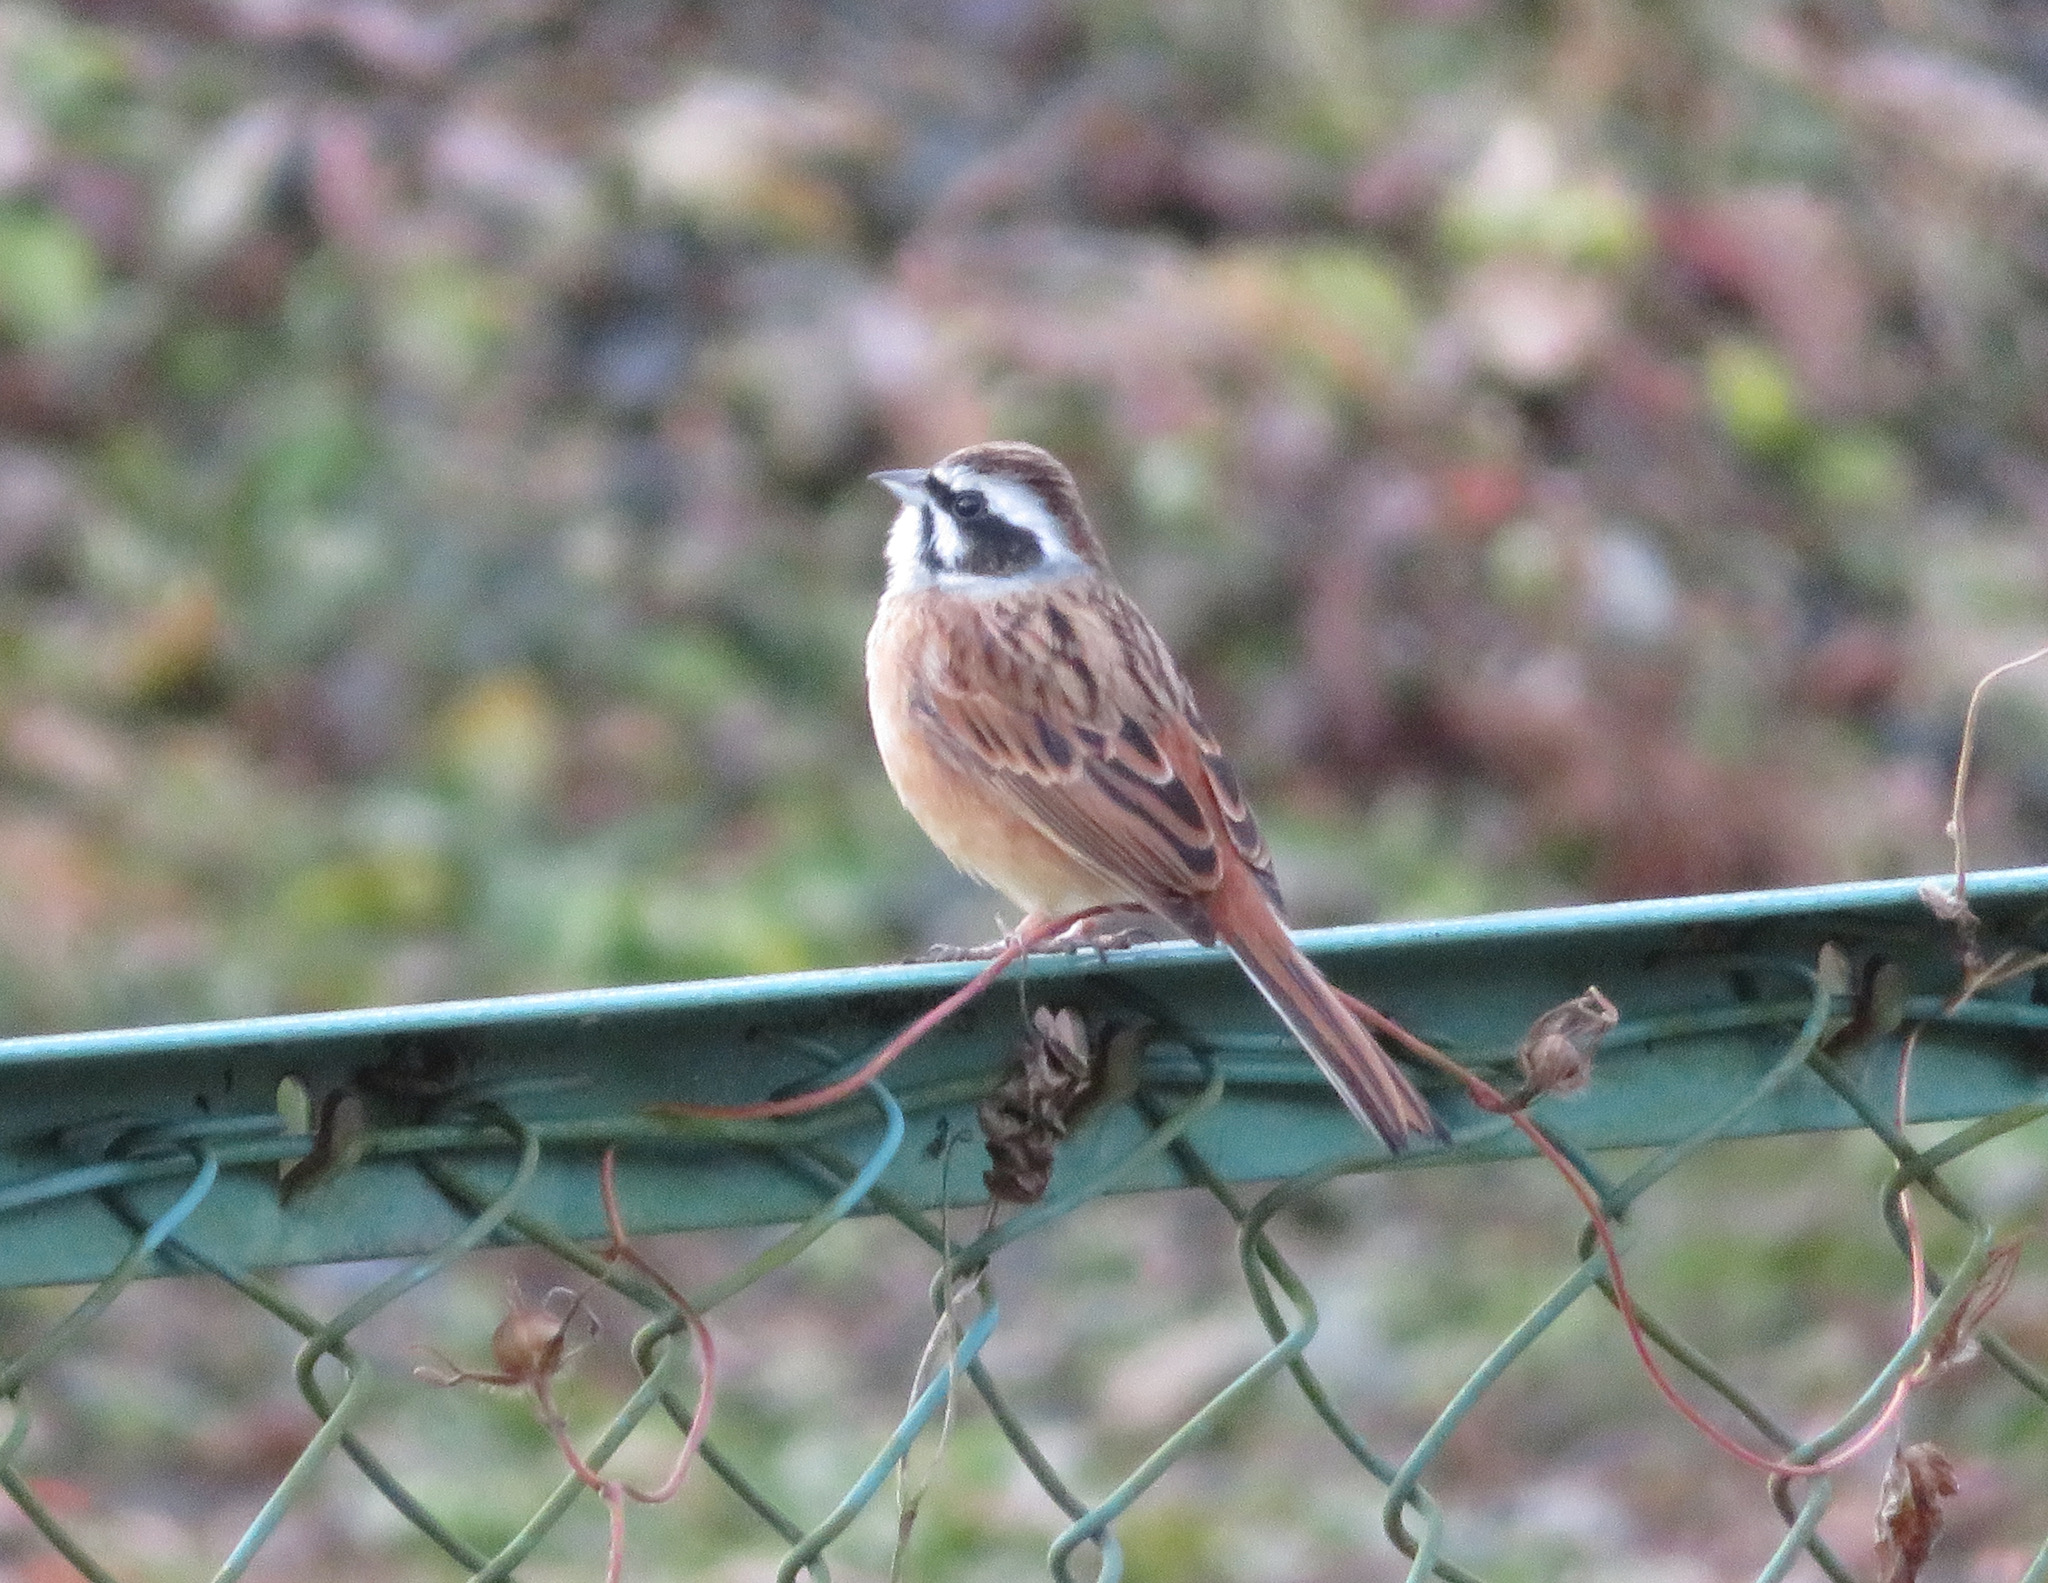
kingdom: Animalia
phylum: Chordata
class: Aves
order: Passeriformes
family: Emberizidae
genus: Emberiza
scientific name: Emberiza cioides
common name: Meadow bunting
